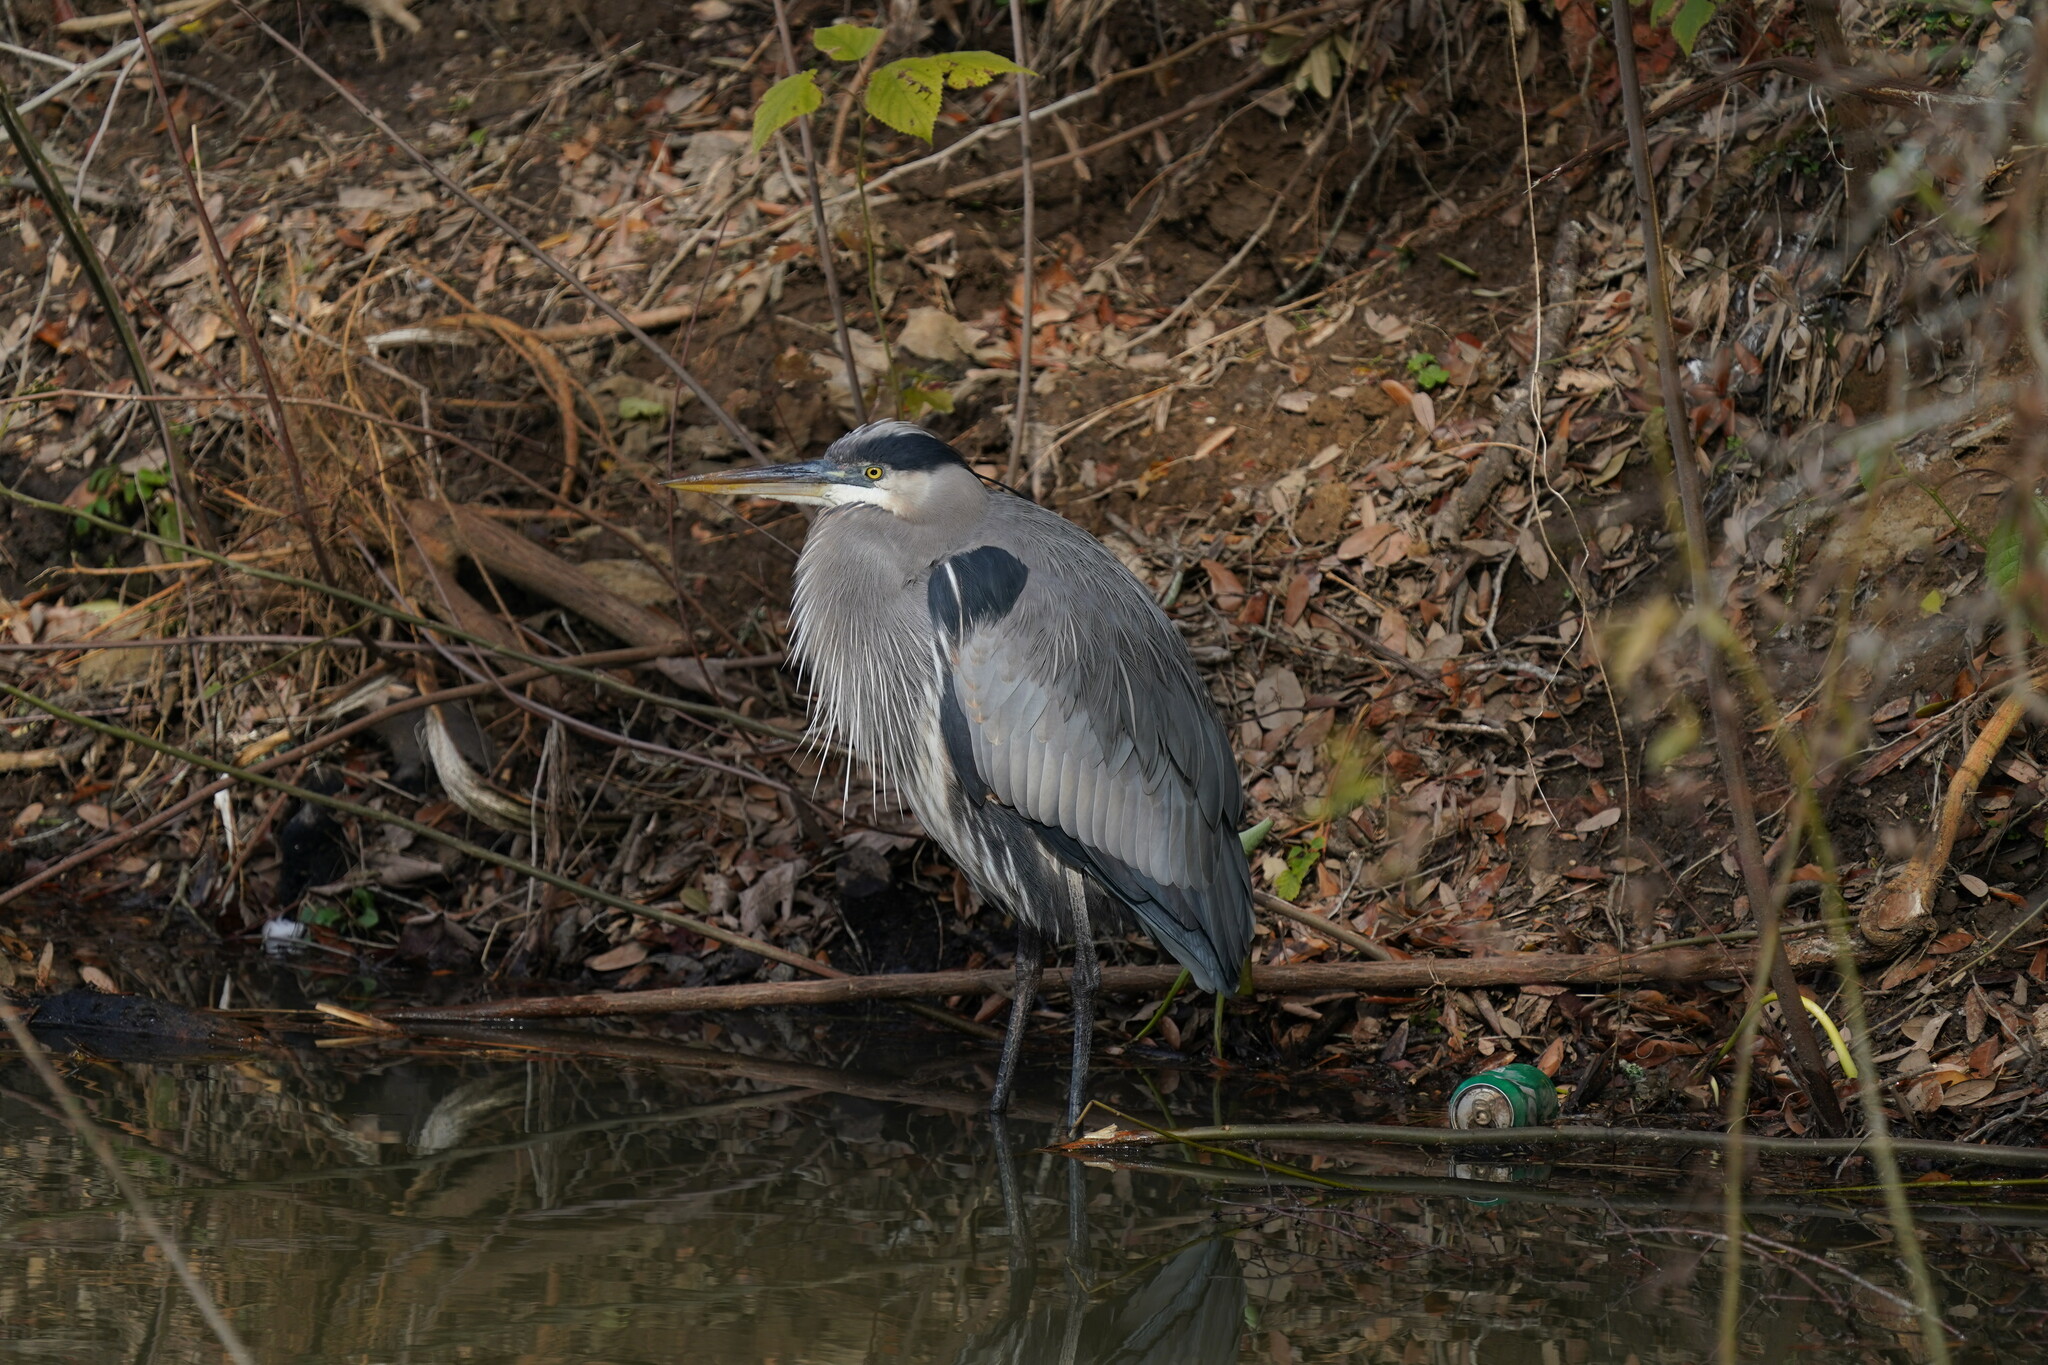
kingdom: Animalia
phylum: Chordata
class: Aves
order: Pelecaniformes
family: Ardeidae
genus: Ardea
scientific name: Ardea herodias
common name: Great blue heron
